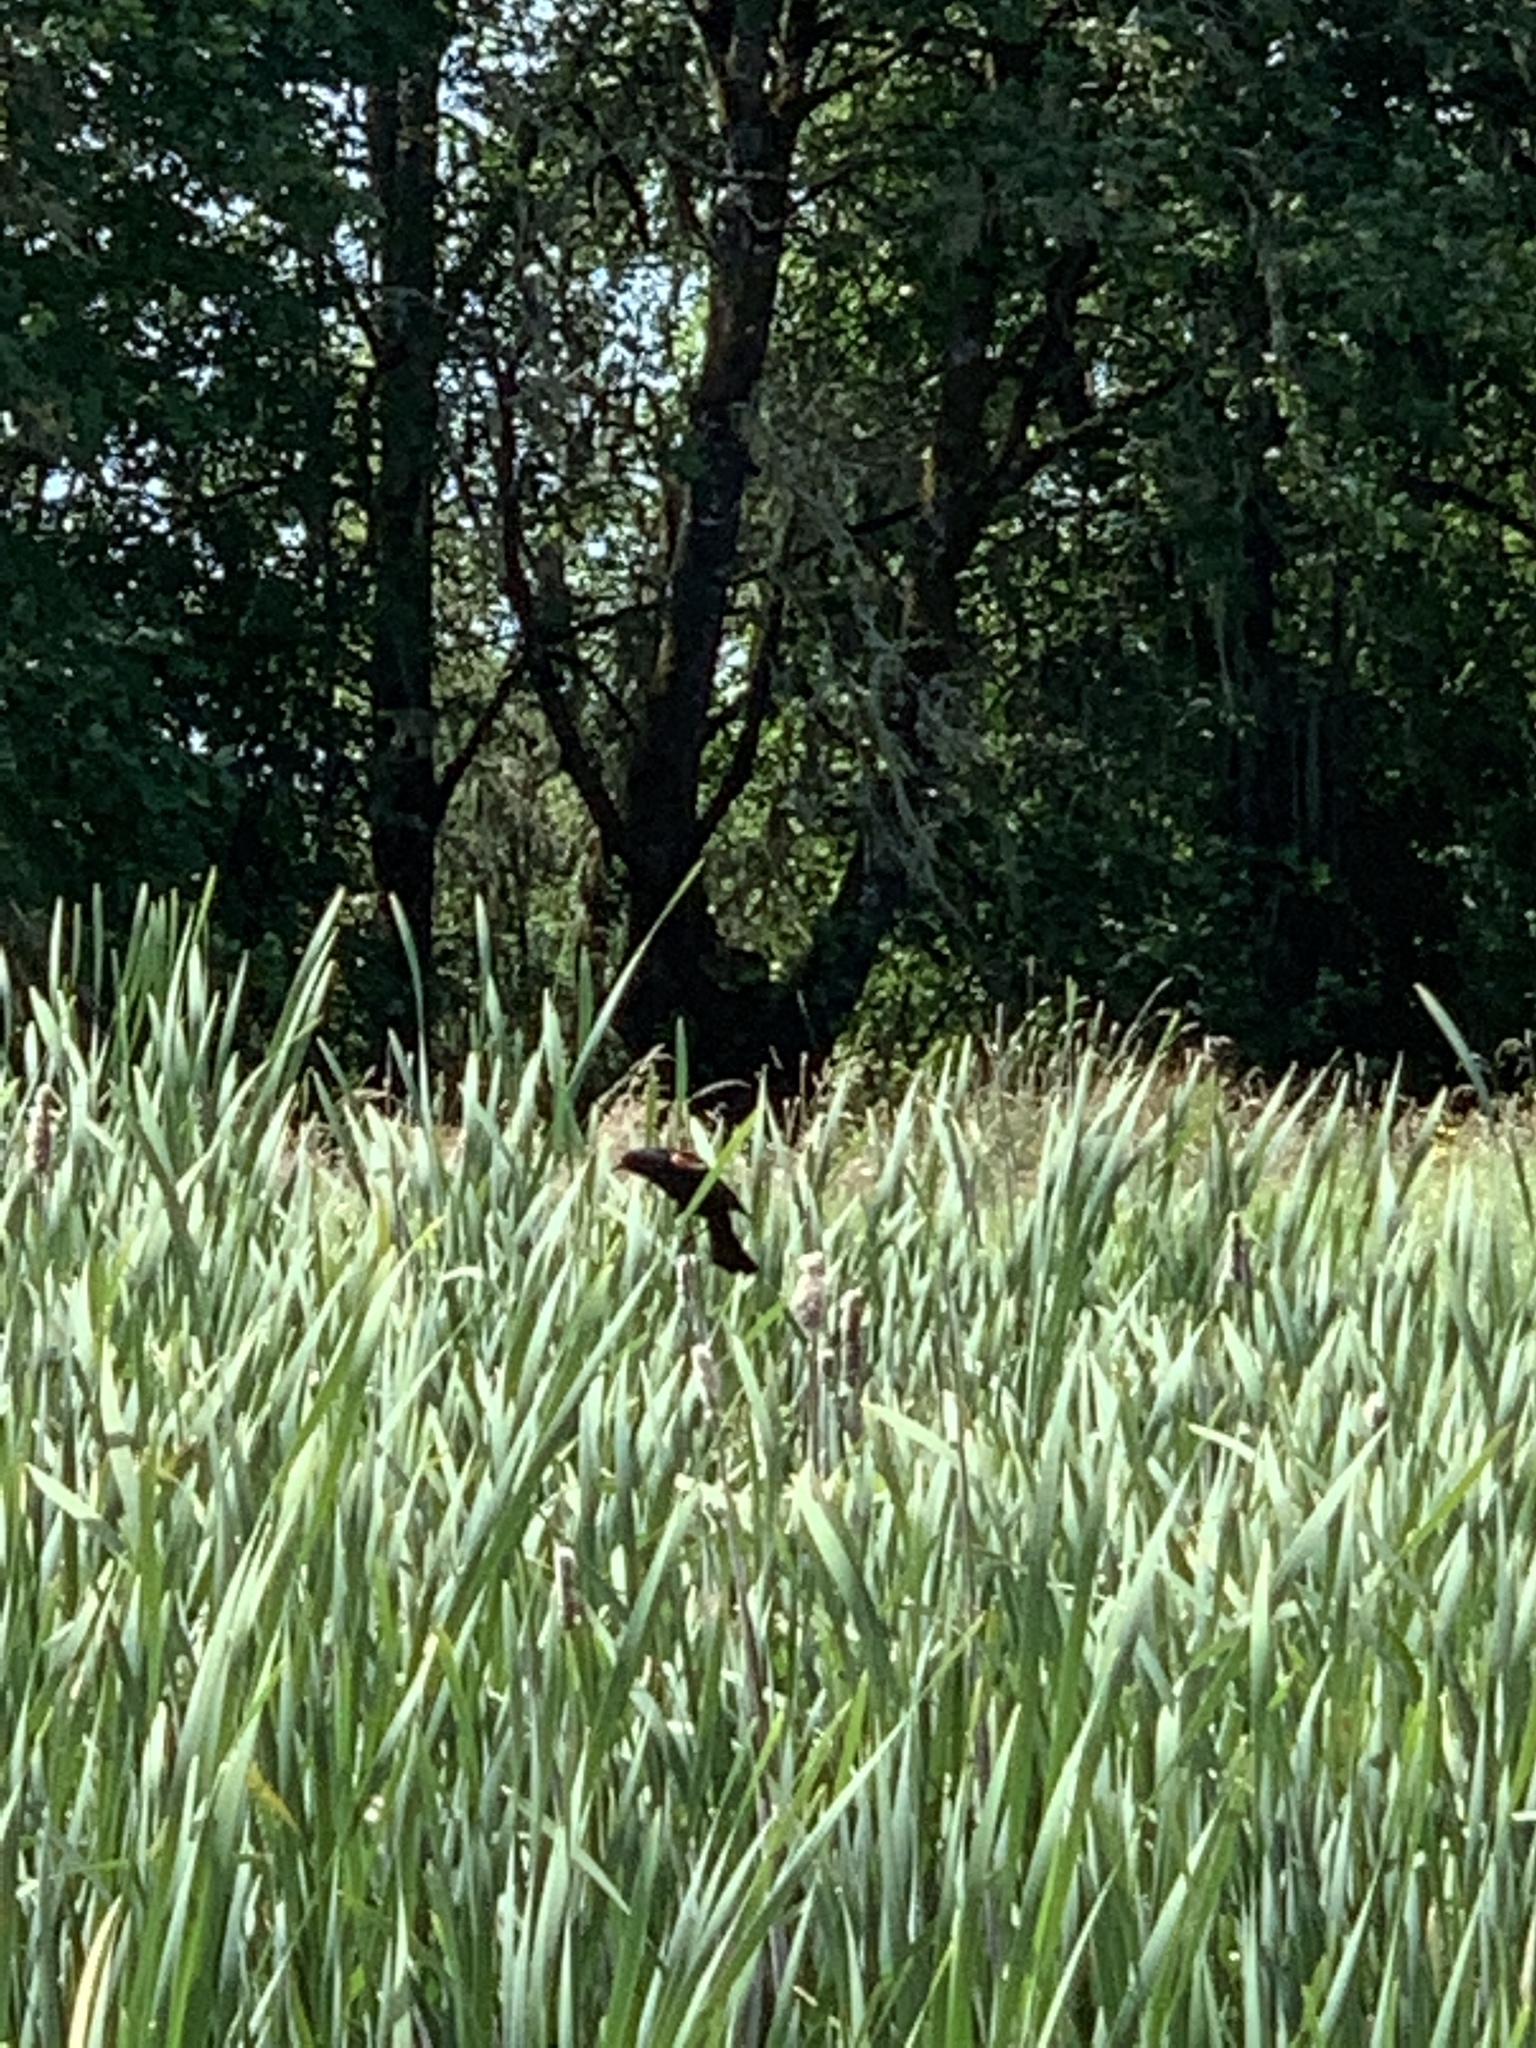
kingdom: Animalia
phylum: Chordata
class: Aves
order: Passeriformes
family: Icteridae
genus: Agelaius
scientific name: Agelaius phoeniceus
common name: Red-winged blackbird
